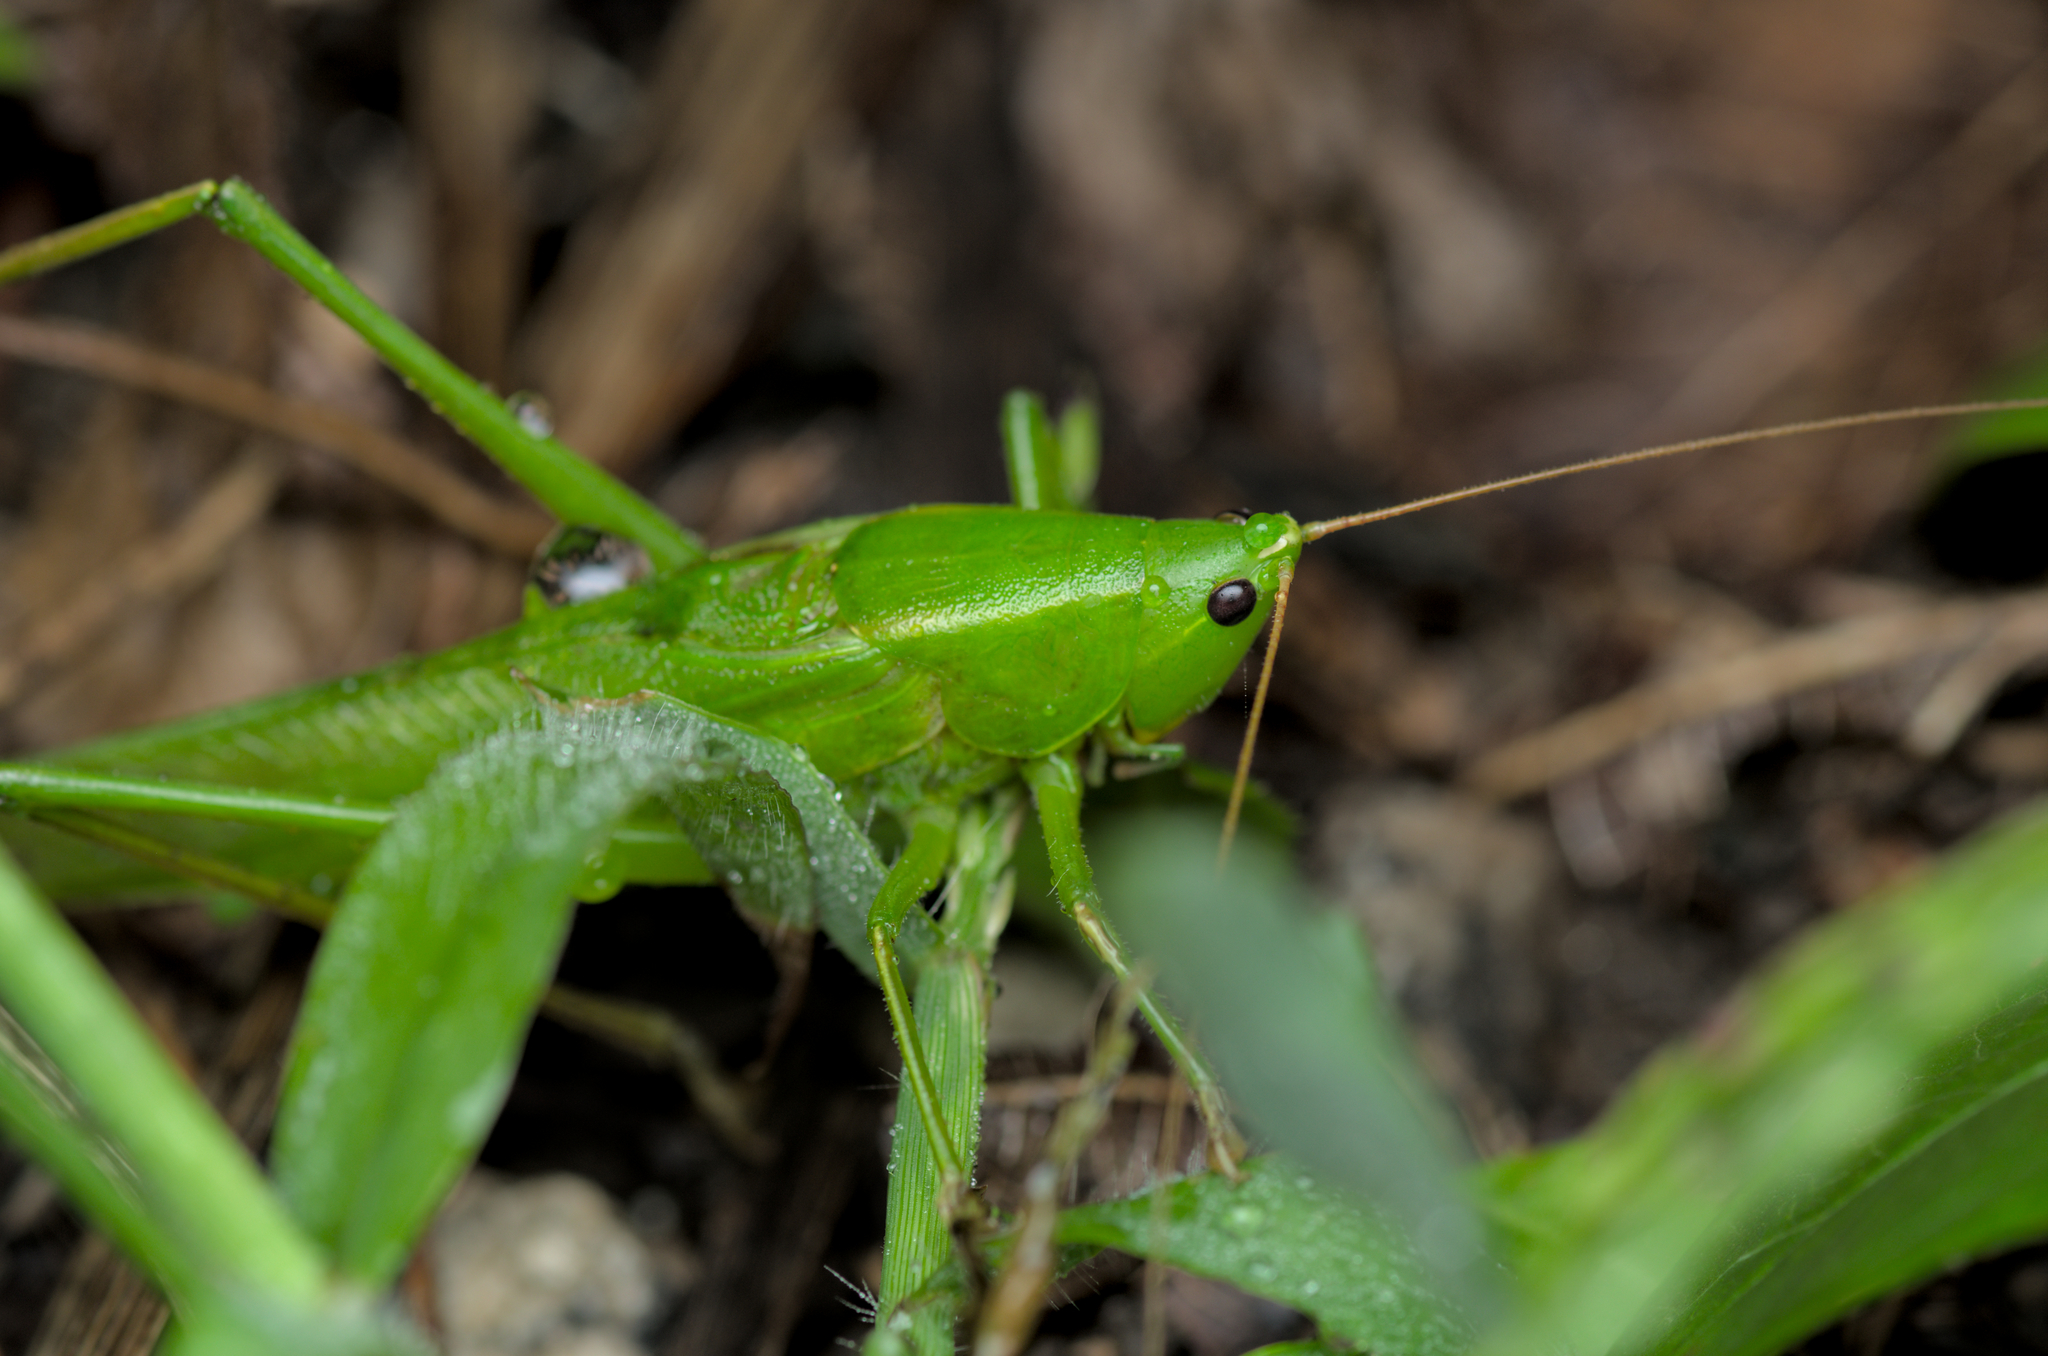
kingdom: Animalia
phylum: Arthropoda
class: Insecta
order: Orthoptera
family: Tettigoniidae
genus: Ruspolia
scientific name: Ruspolia nitidula
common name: Large conehead
